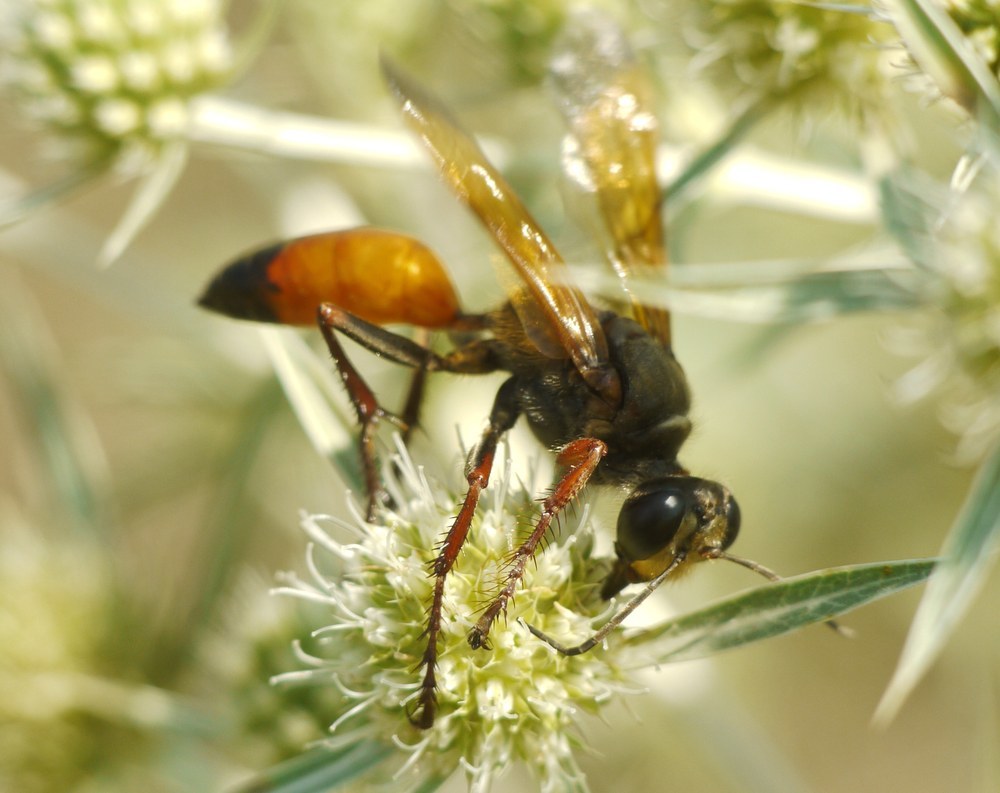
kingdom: Animalia
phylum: Arthropoda
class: Insecta
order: Hymenoptera
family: Sphecidae
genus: Sphex
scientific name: Sphex flavipennis
